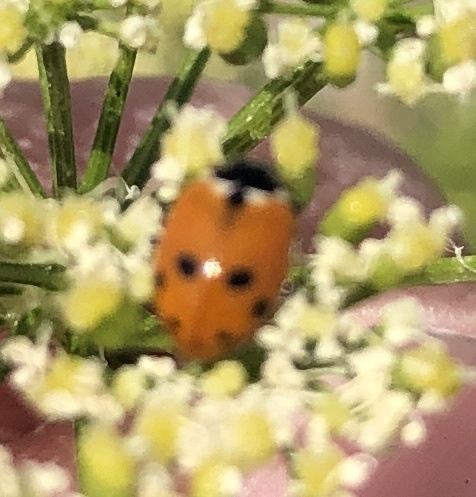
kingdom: Animalia
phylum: Arthropoda
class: Insecta
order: Coleoptera
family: Coccinellidae
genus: Hippodamia
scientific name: Hippodamia variegata
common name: Ladybird beetle
